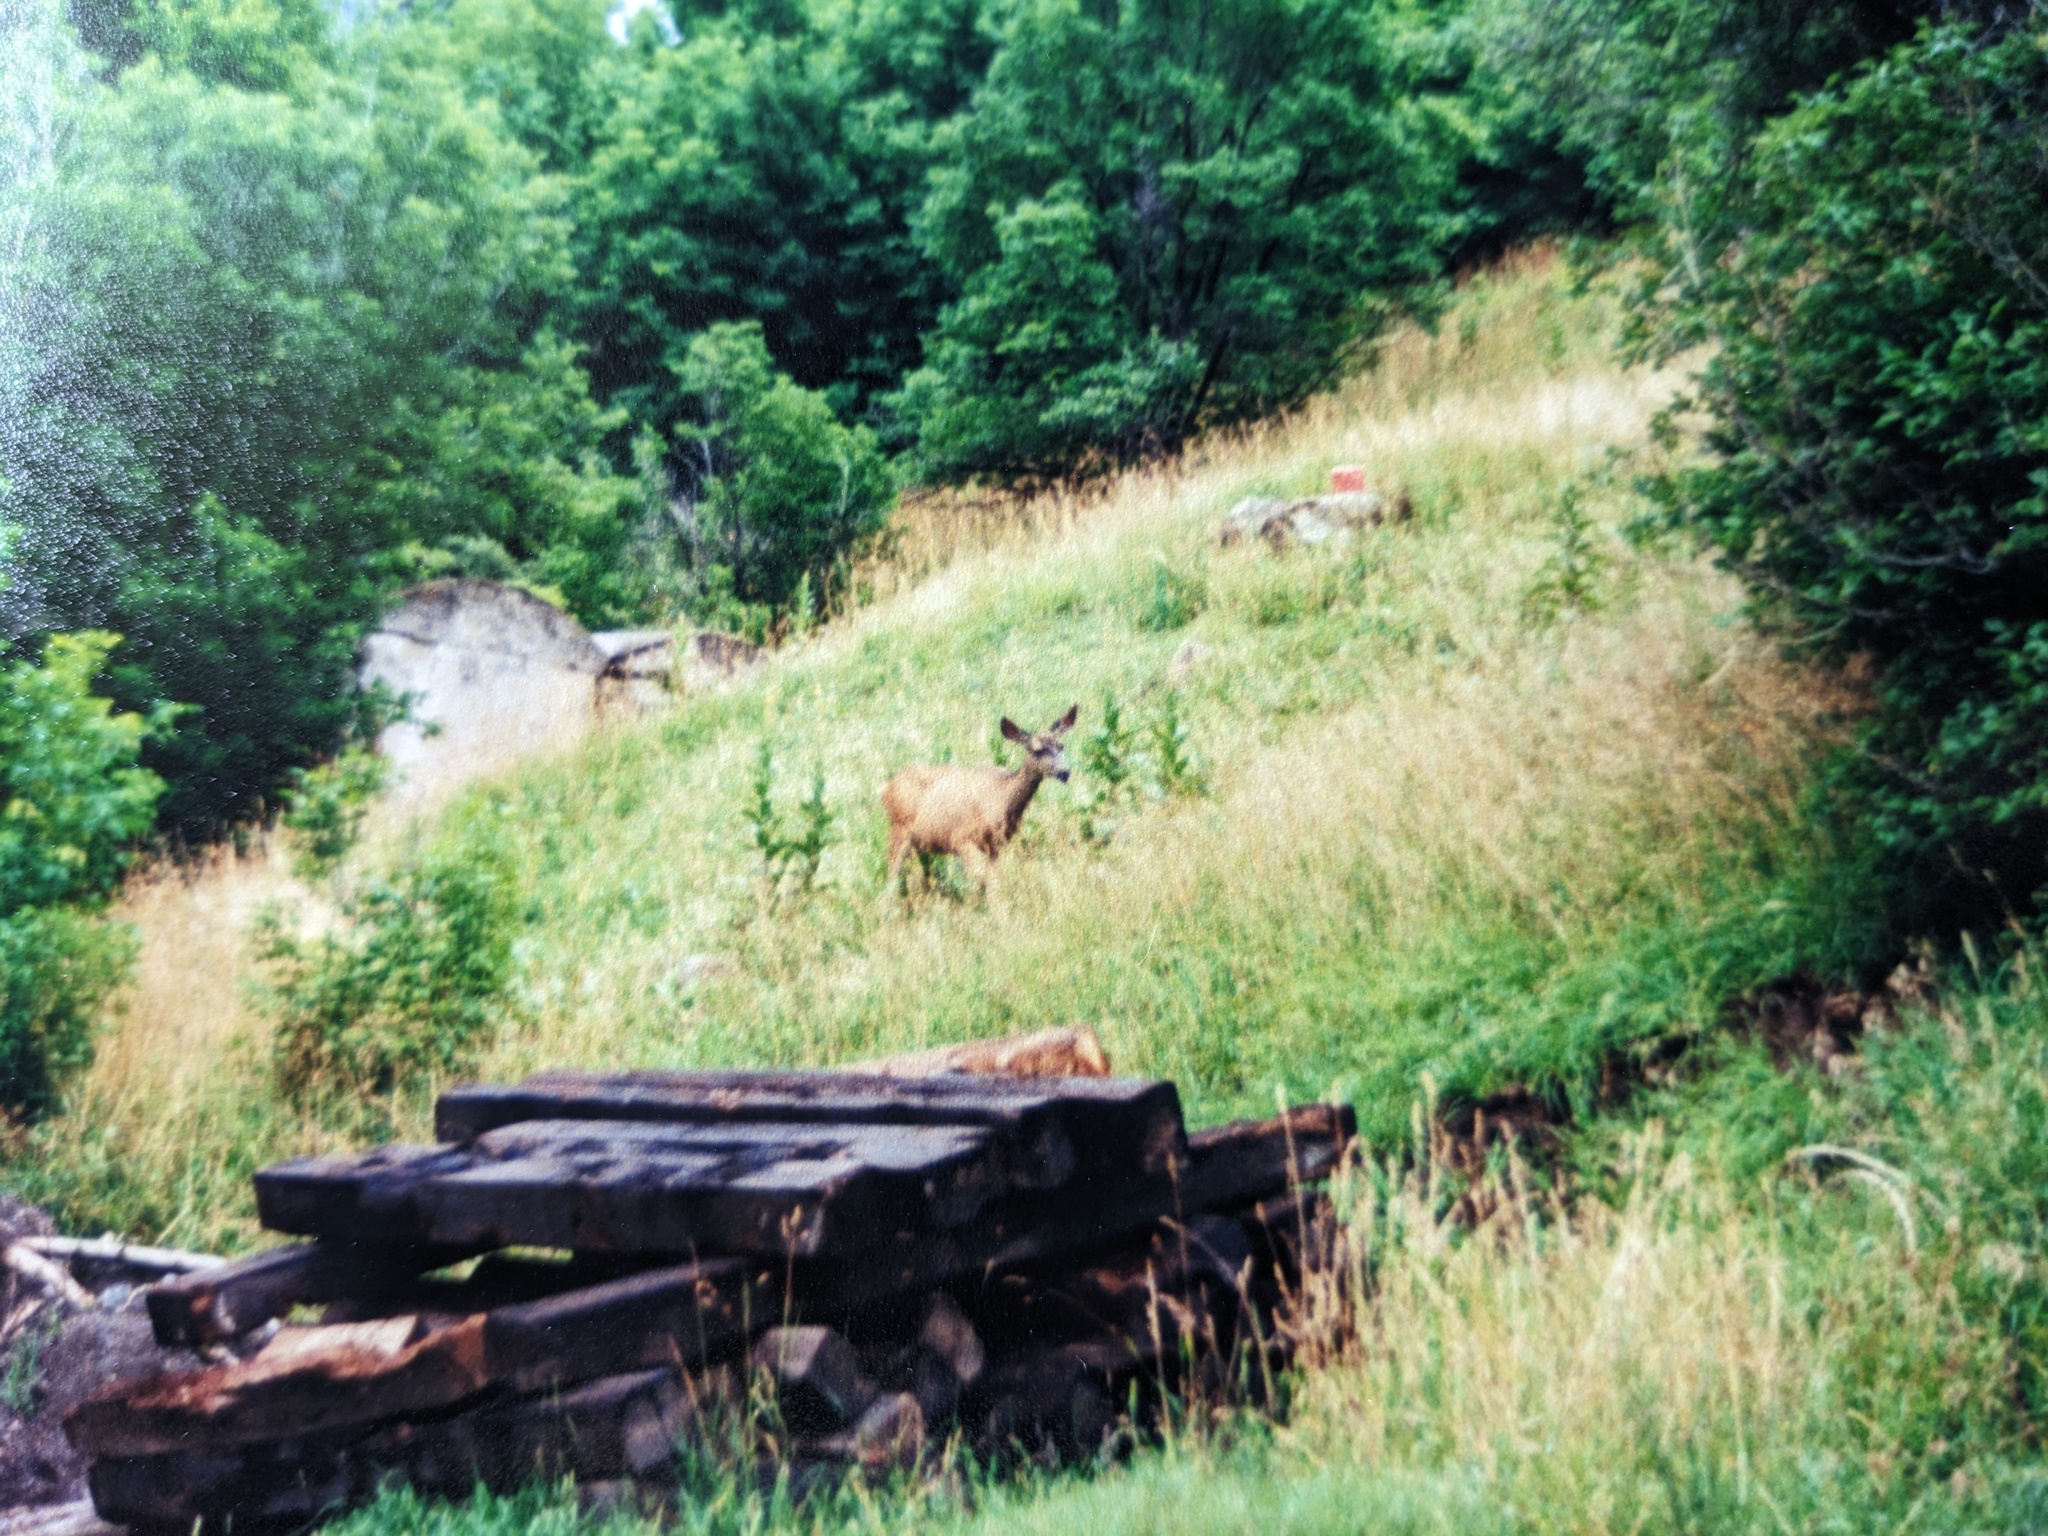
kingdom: Animalia
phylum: Chordata
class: Mammalia
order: Artiodactyla
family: Cervidae
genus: Odocoileus
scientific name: Odocoileus hemionus
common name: Mule deer
